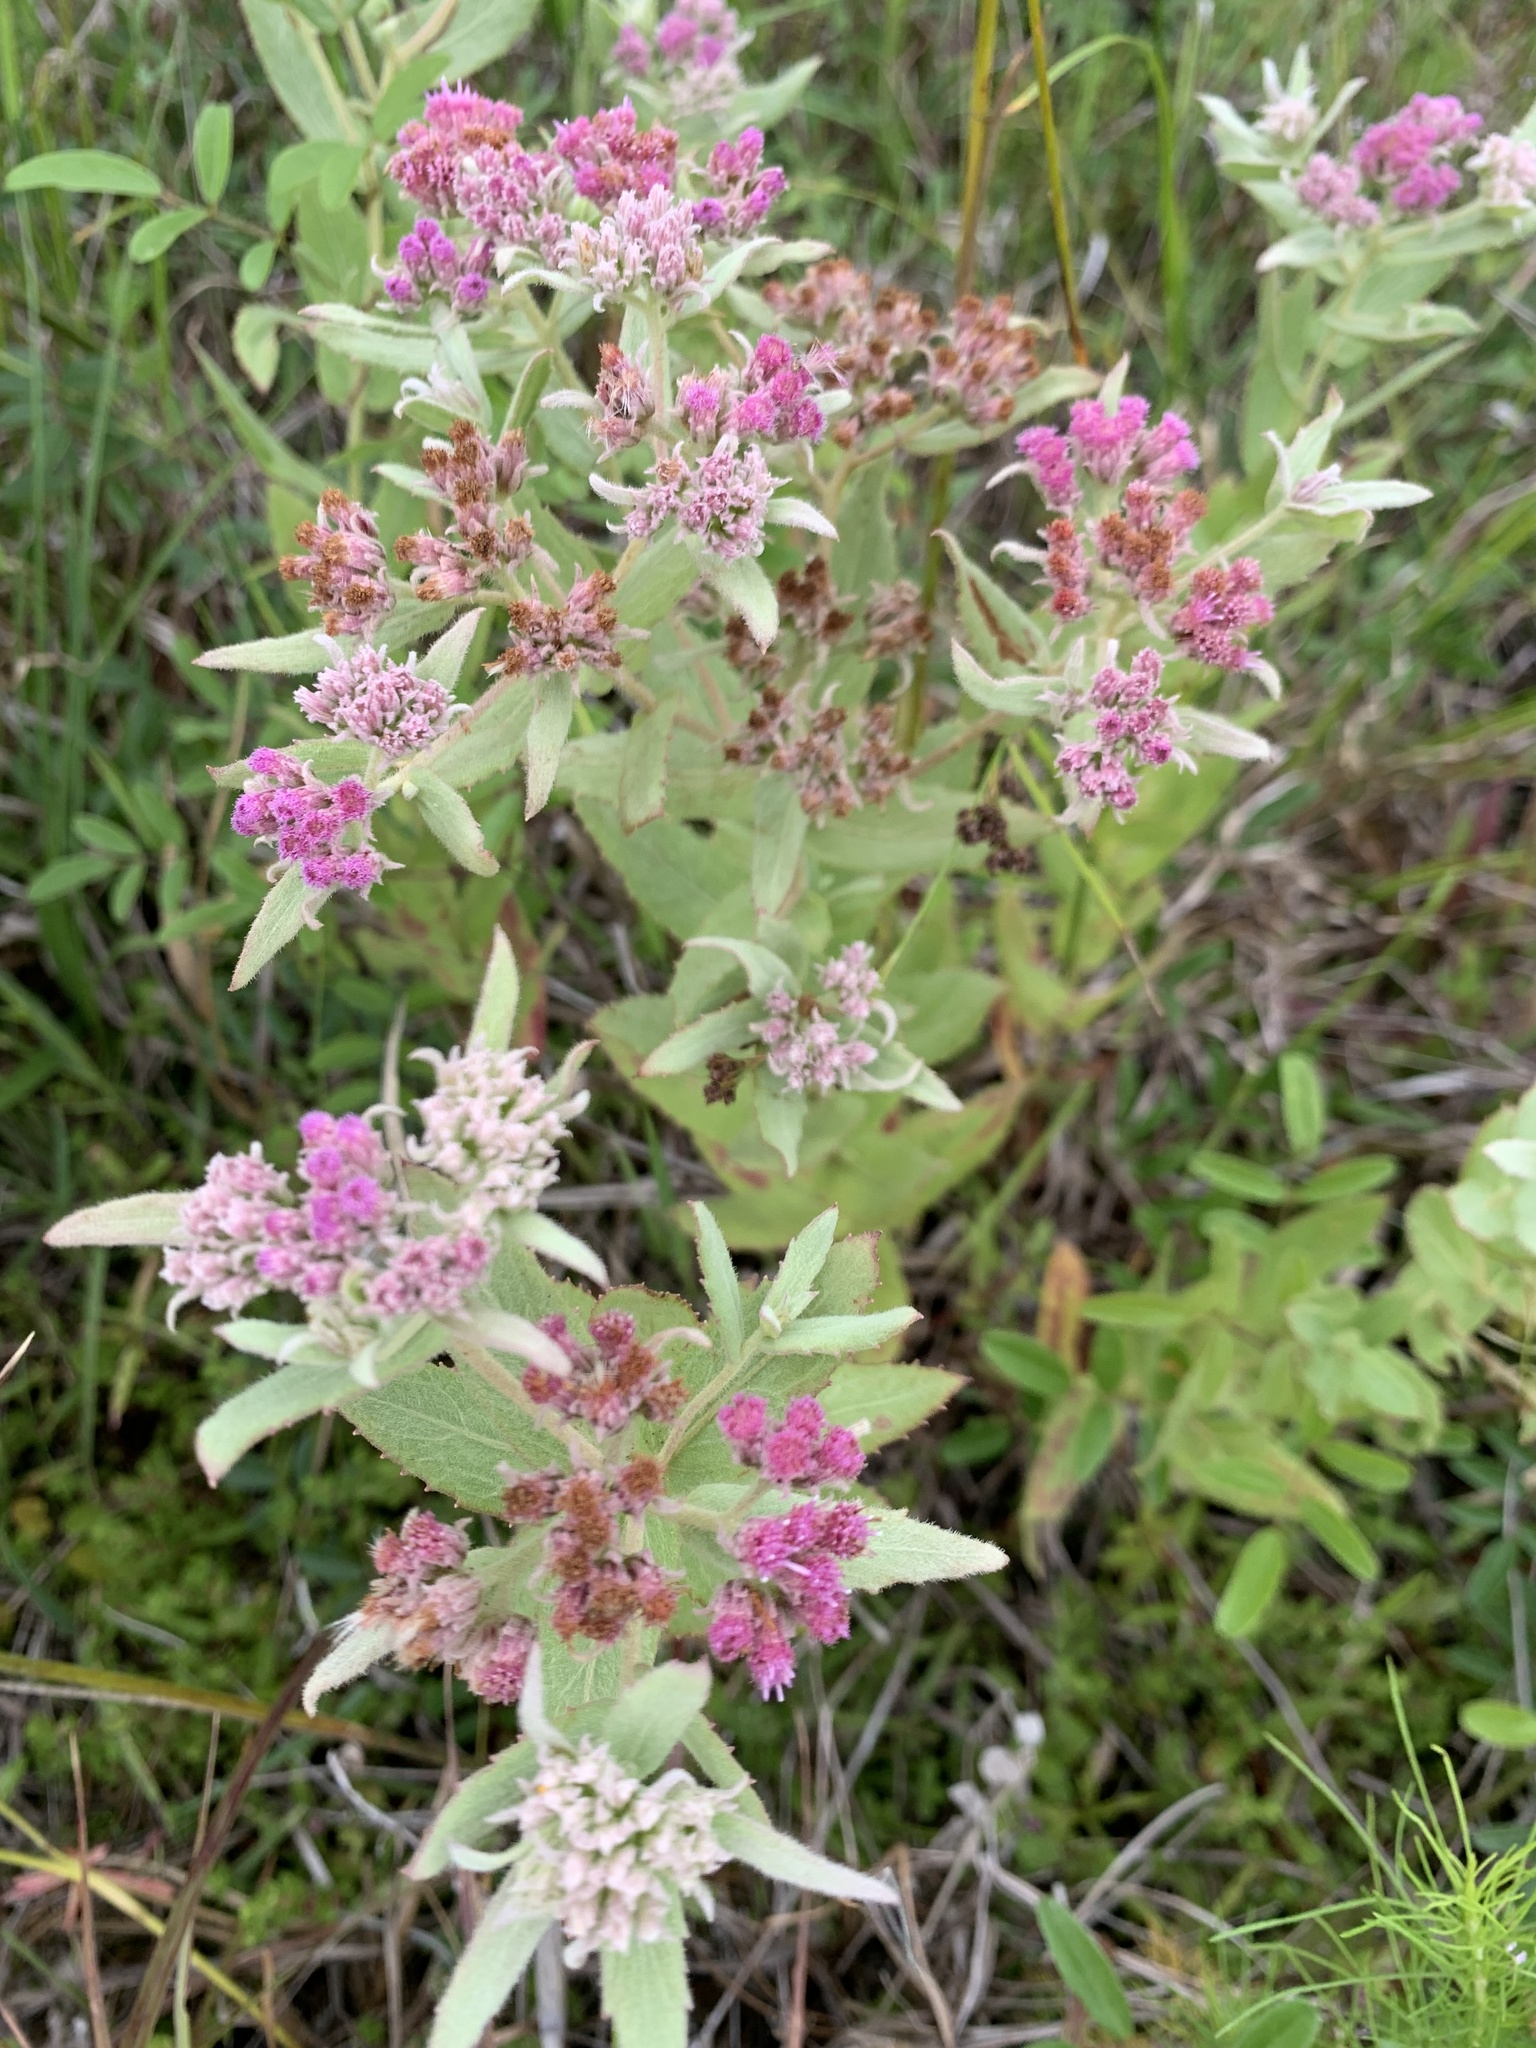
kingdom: Plantae
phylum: Tracheophyta
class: Magnoliopsida
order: Asterales
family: Asteraceae
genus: Pluchea
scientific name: Pluchea baccharis
